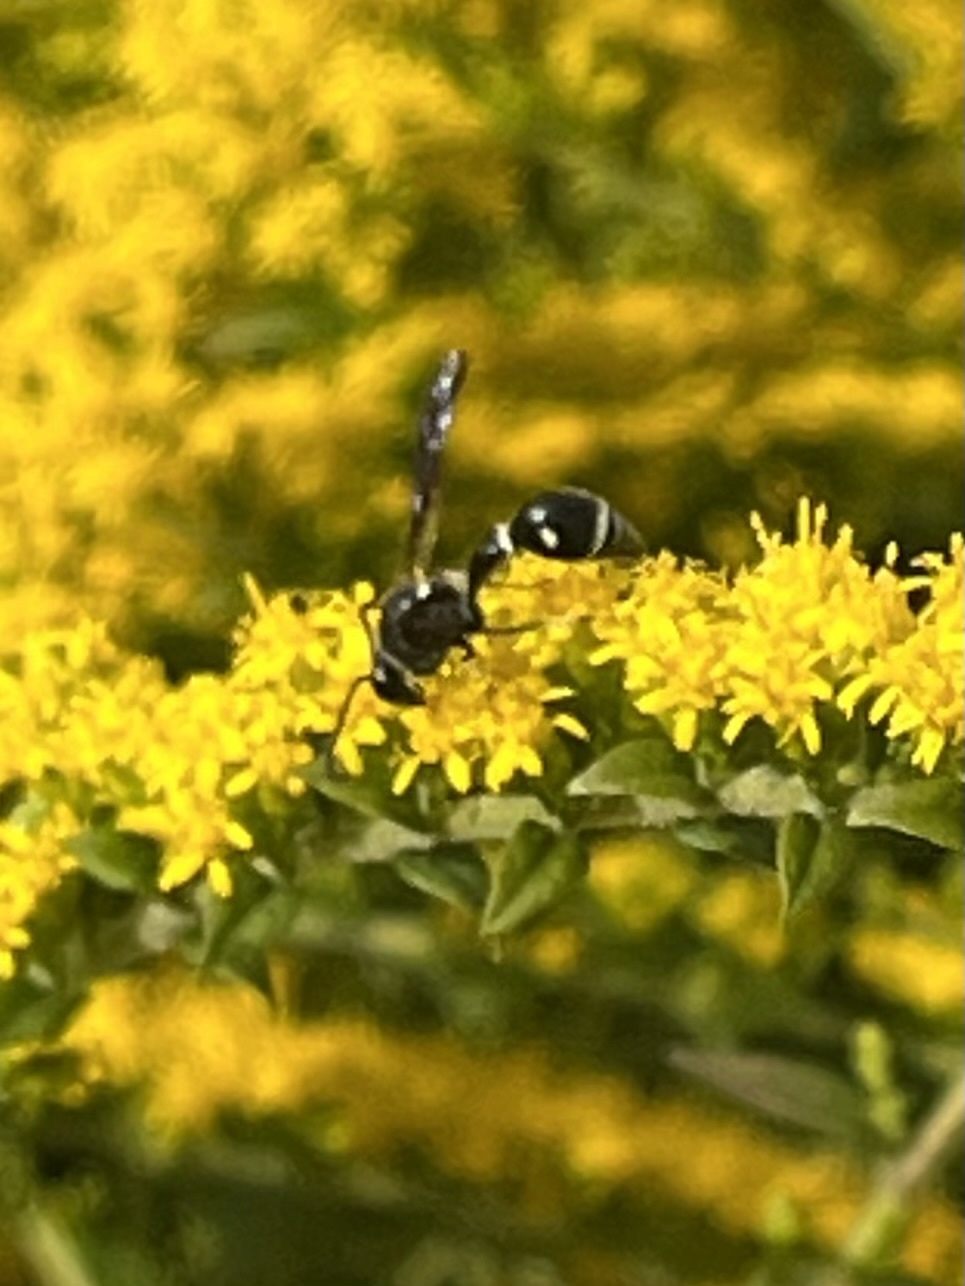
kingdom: Animalia
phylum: Arthropoda
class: Insecta
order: Hymenoptera
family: Vespidae
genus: Eumenes
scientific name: Eumenes fraternus
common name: Fraternal potter wasp
